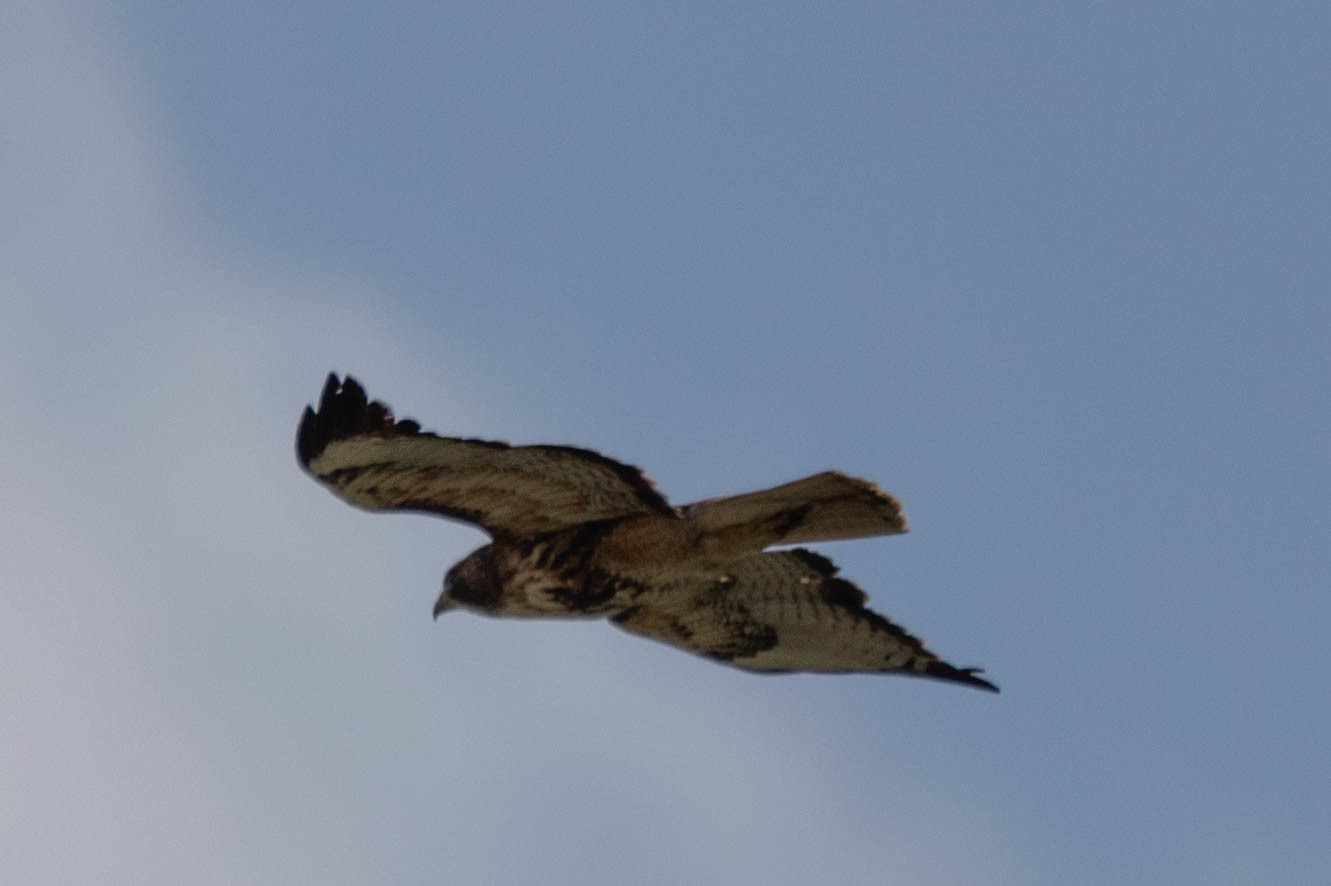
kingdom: Animalia
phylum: Chordata
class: Aves
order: Accipitriformes
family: Accipitridae
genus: Buteo
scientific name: Buteo jamaicensis
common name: Red-tailed hawk
